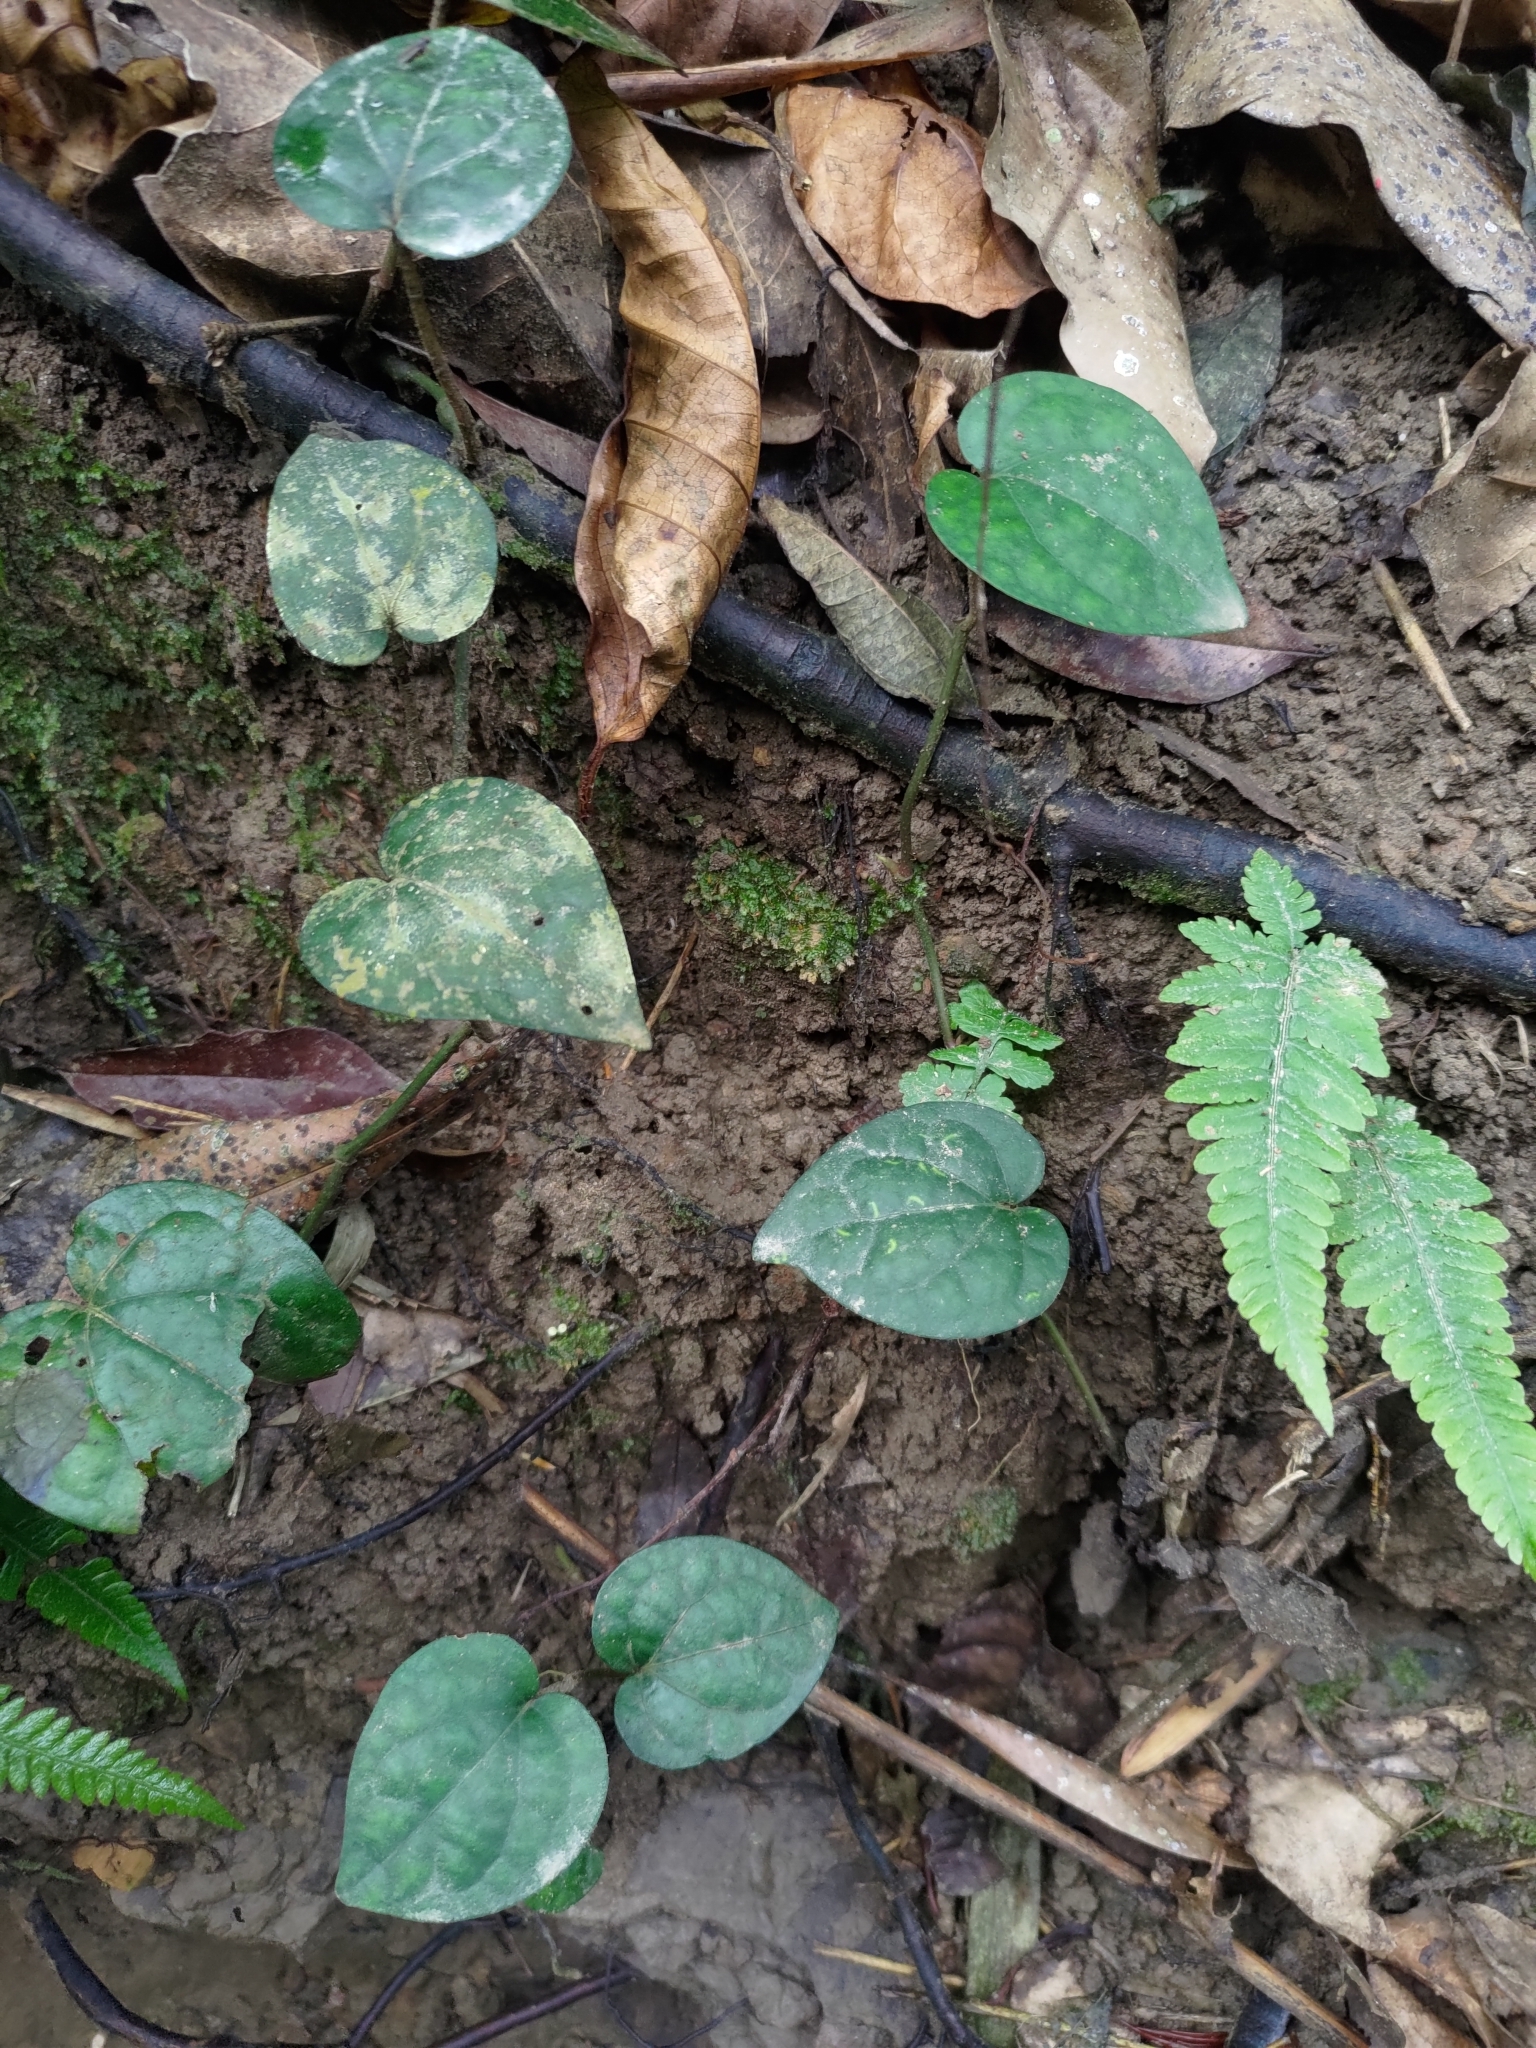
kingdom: Plantae
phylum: Tracheophyta
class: Magnoliopsida
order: Piperales
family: Piperaceae
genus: Piper
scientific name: Piper kadsura
